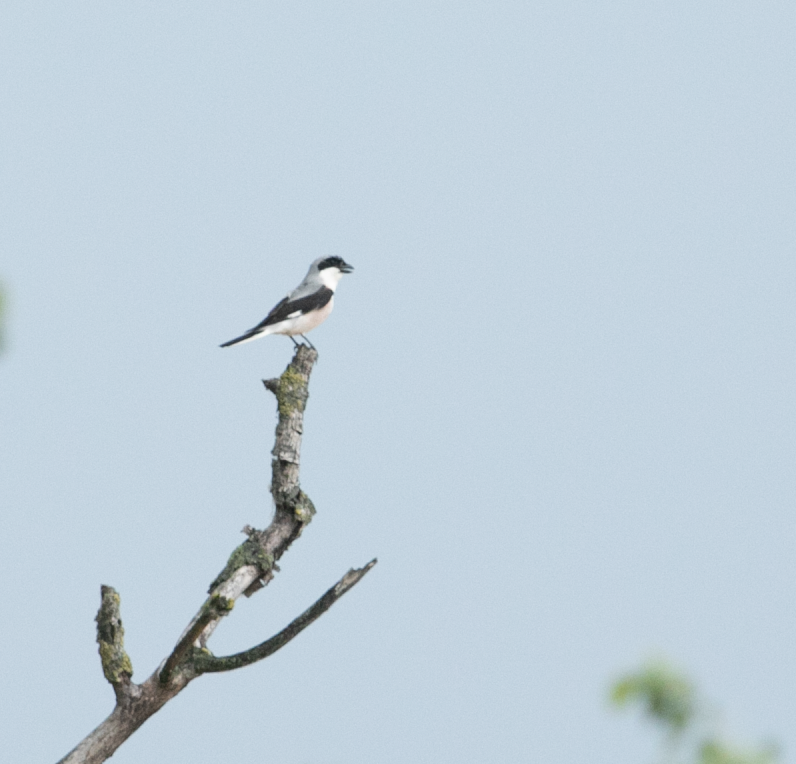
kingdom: Animalia
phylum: Chordata
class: Aves
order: Passeriformes
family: Laniidae
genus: Lanius
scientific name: Lanius minor
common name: Lesser grey shrike
